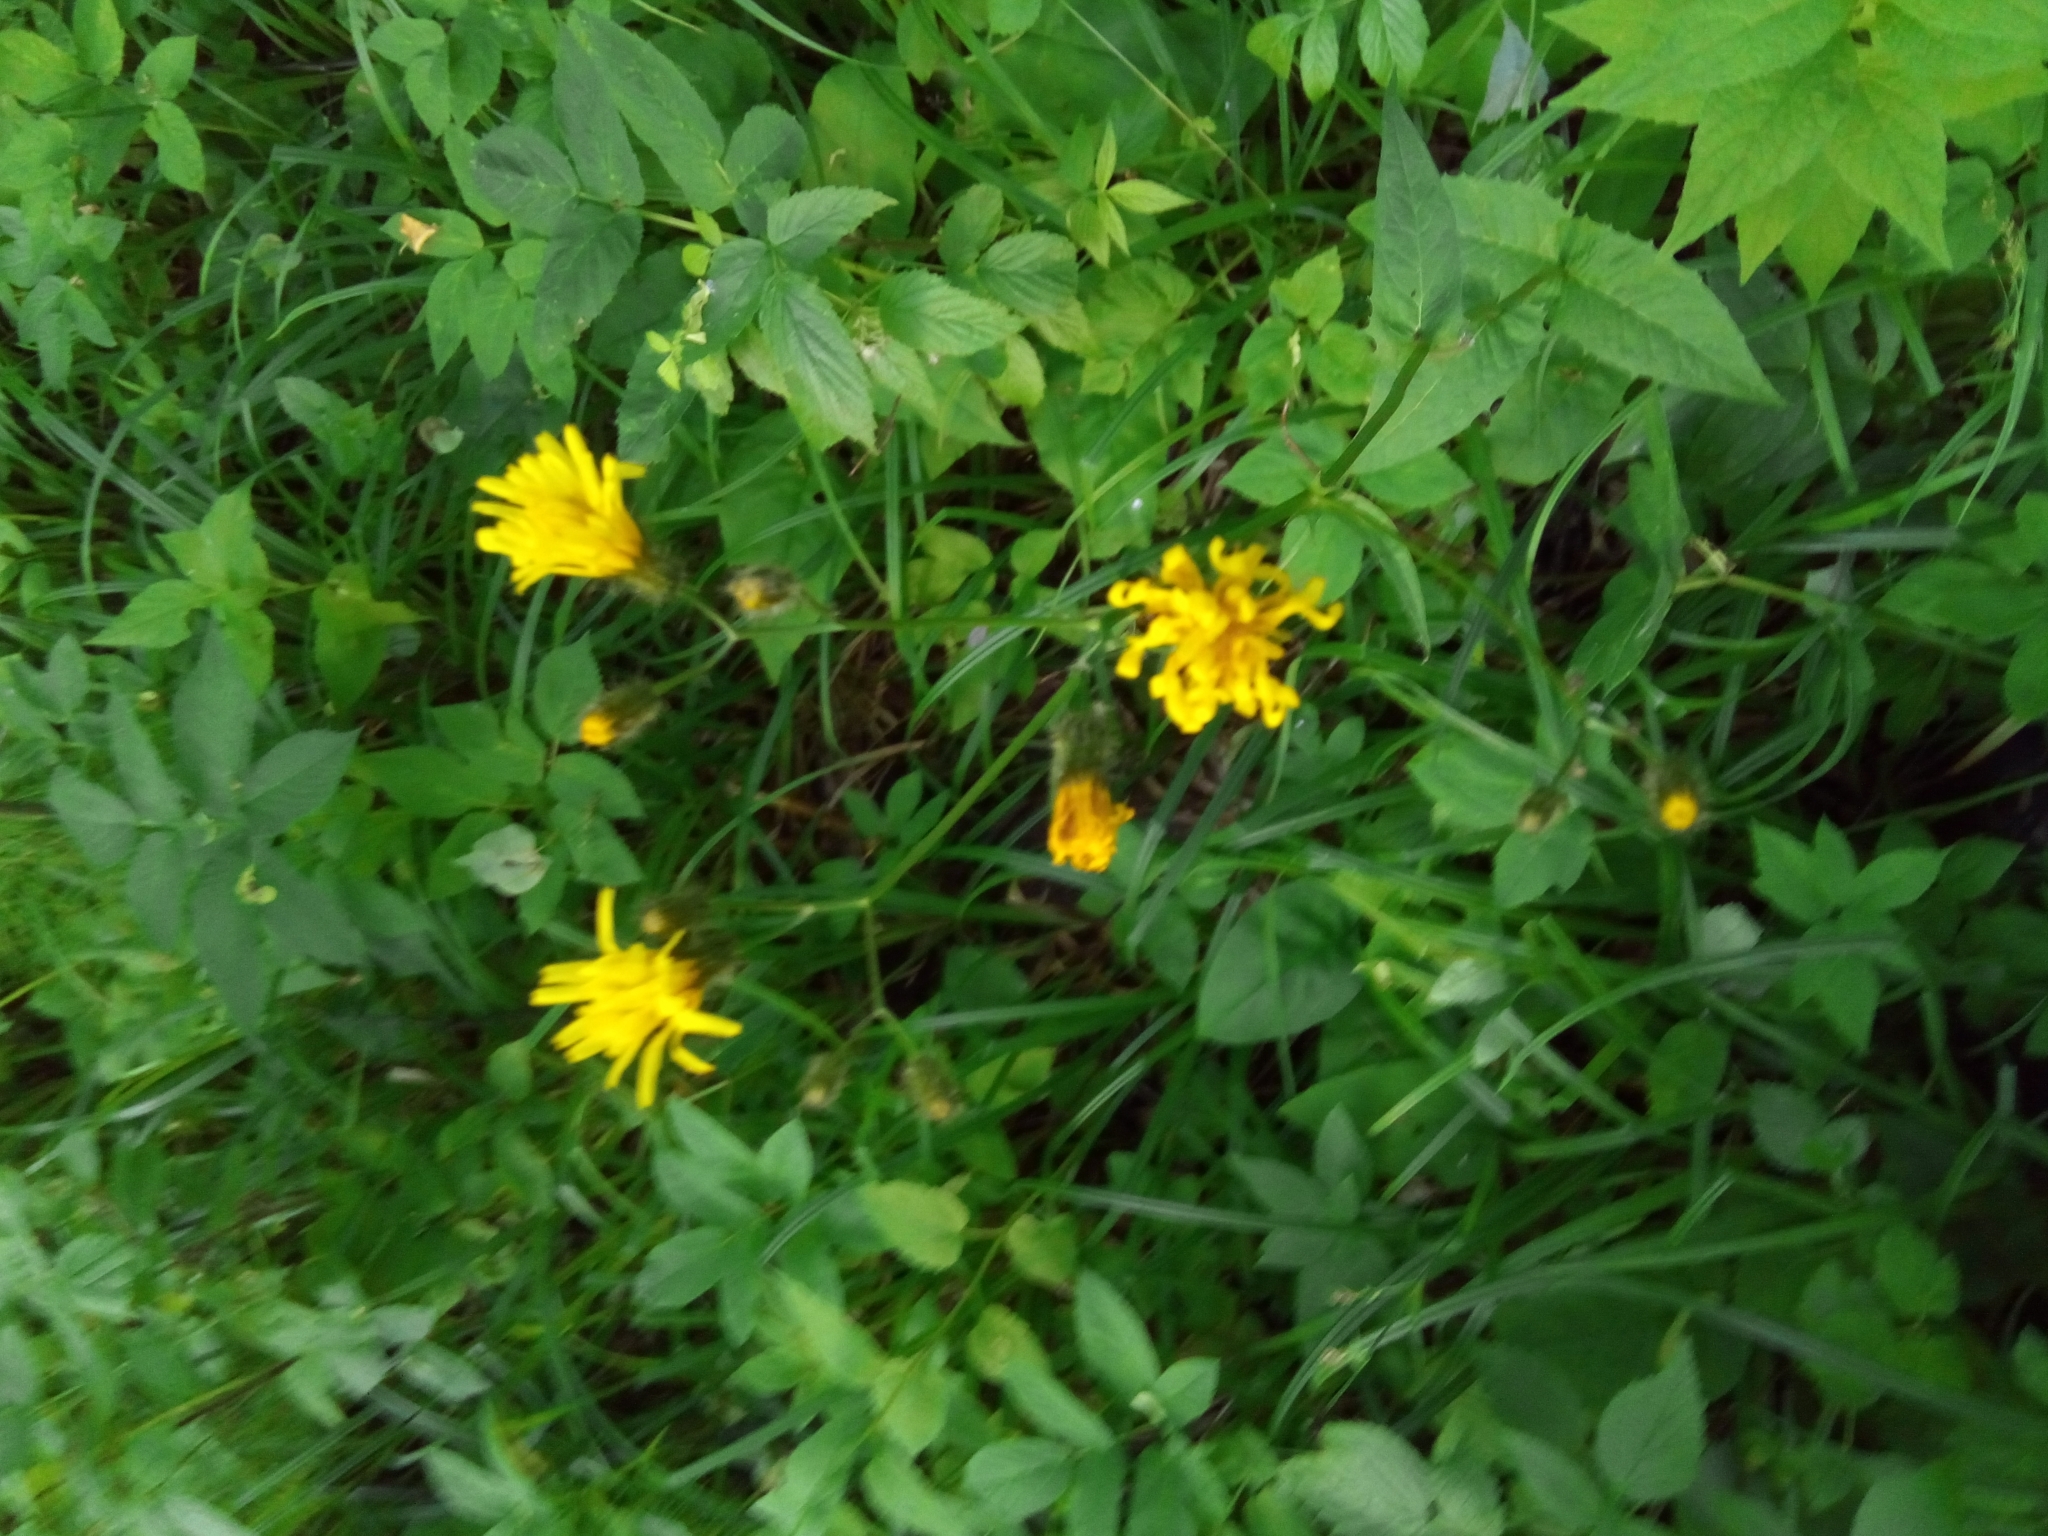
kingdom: Plantae
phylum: Tracheophyta
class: Magnoliopsida
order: Asterales
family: Asteraceae
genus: Crepis
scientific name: Crepis paludosa
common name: Marsh hawk's-beard
